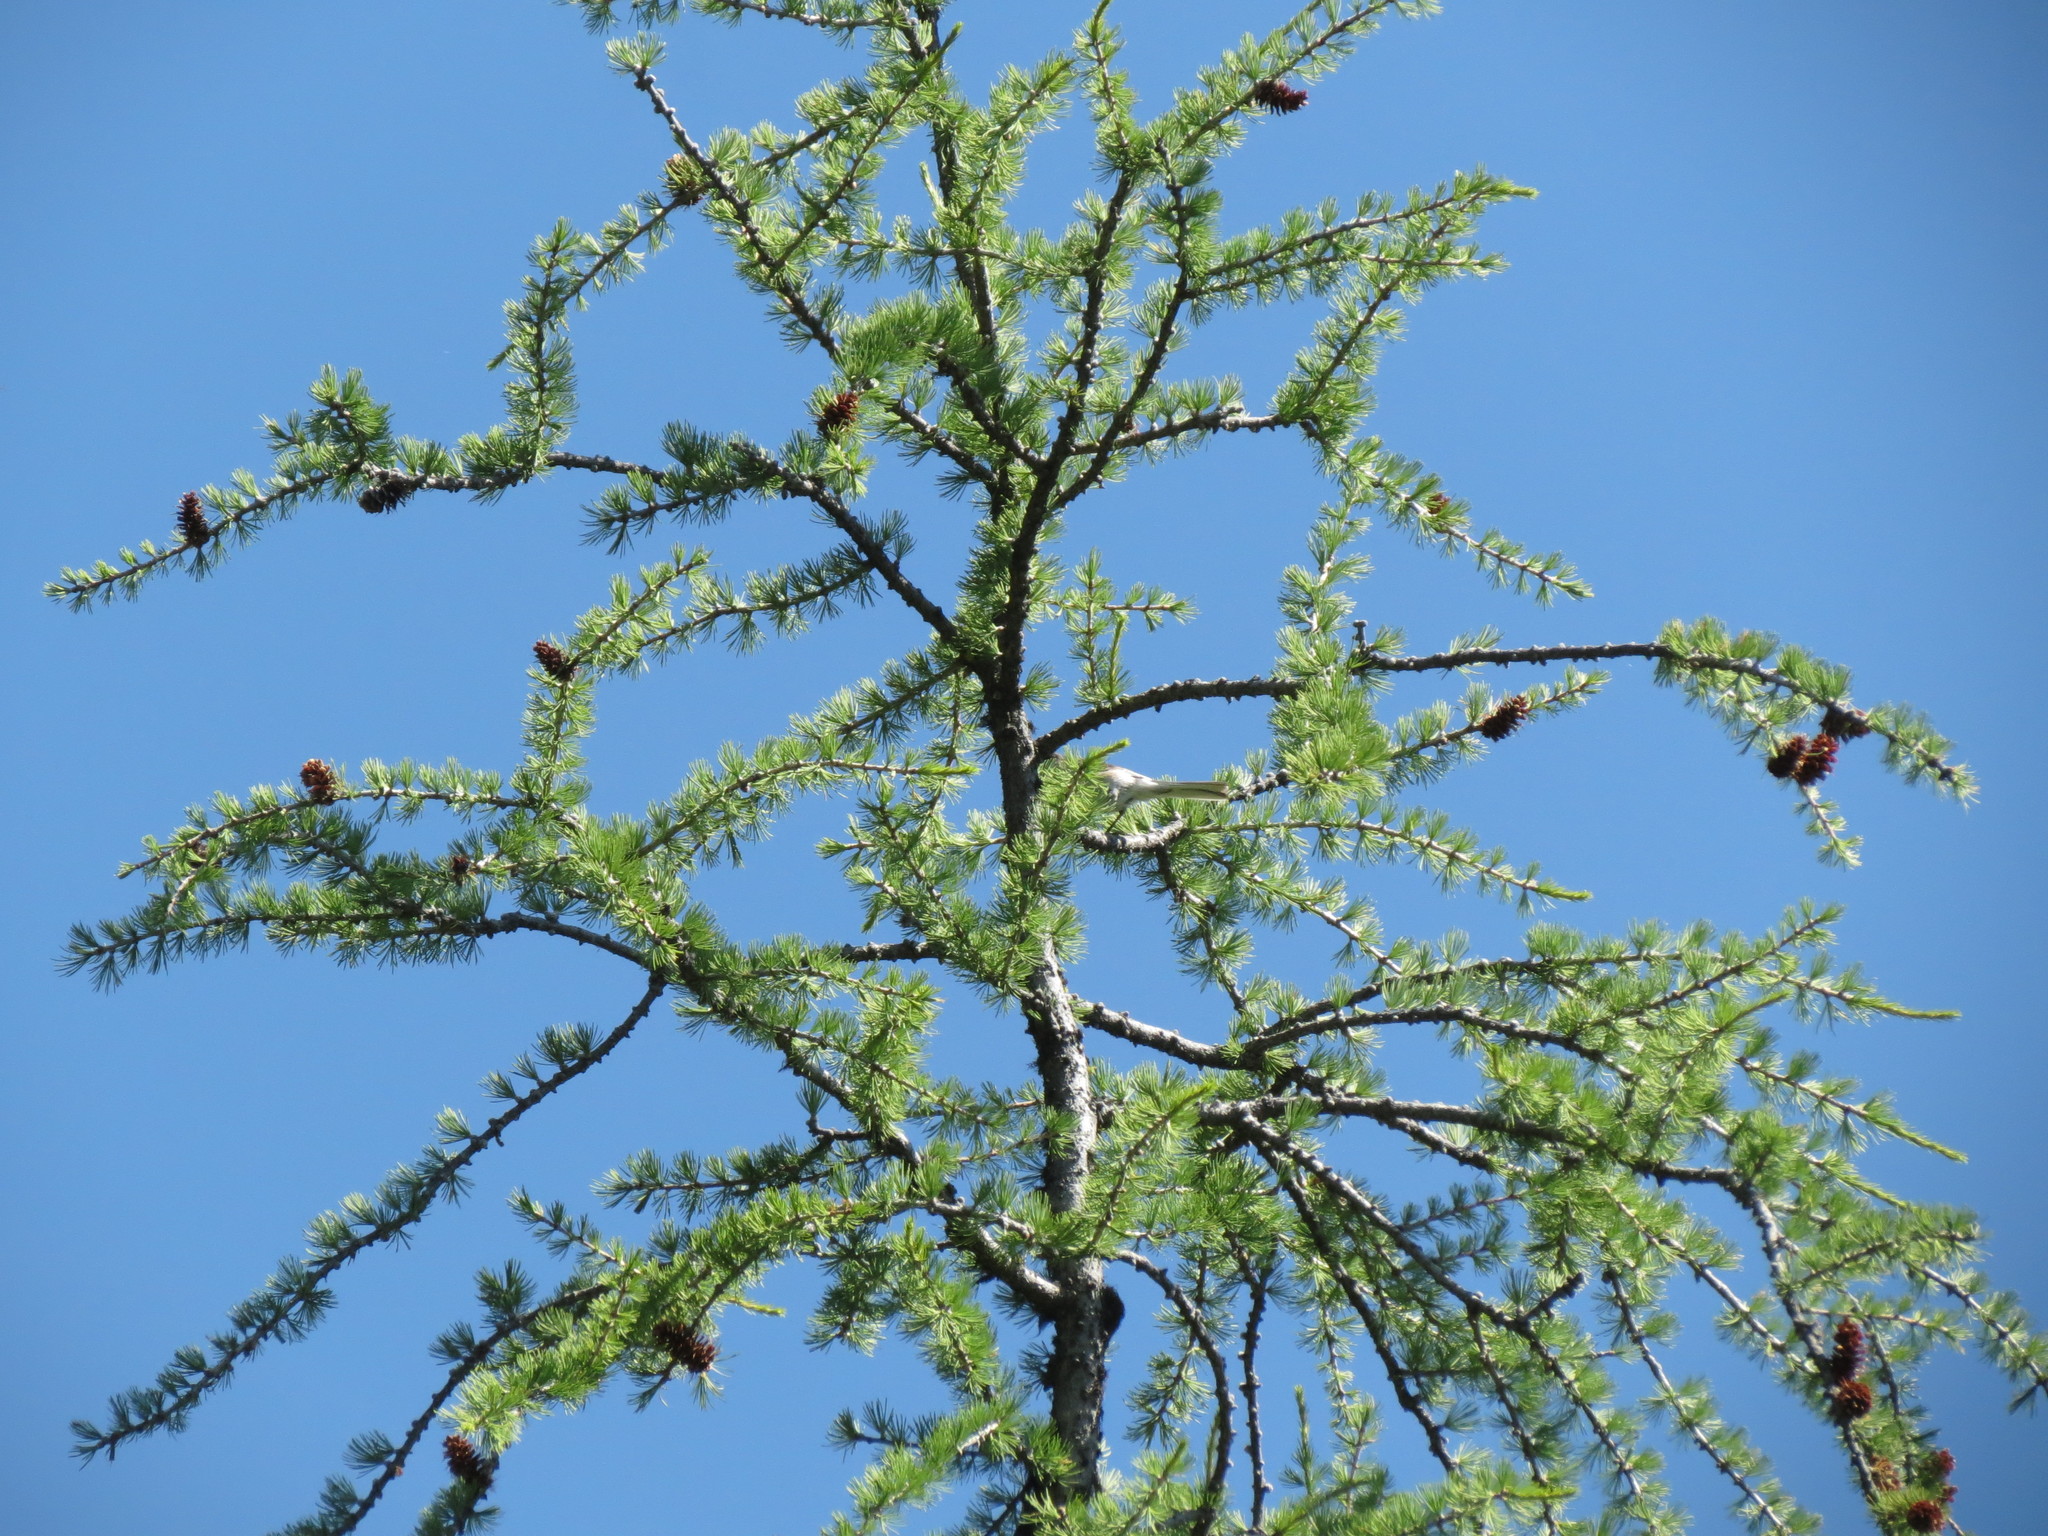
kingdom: Plantae
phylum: Tracheophyta
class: Pinopsida
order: Pinales
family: Pinaceae
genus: Larix
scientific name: Larix lyallii
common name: Alpine larch
